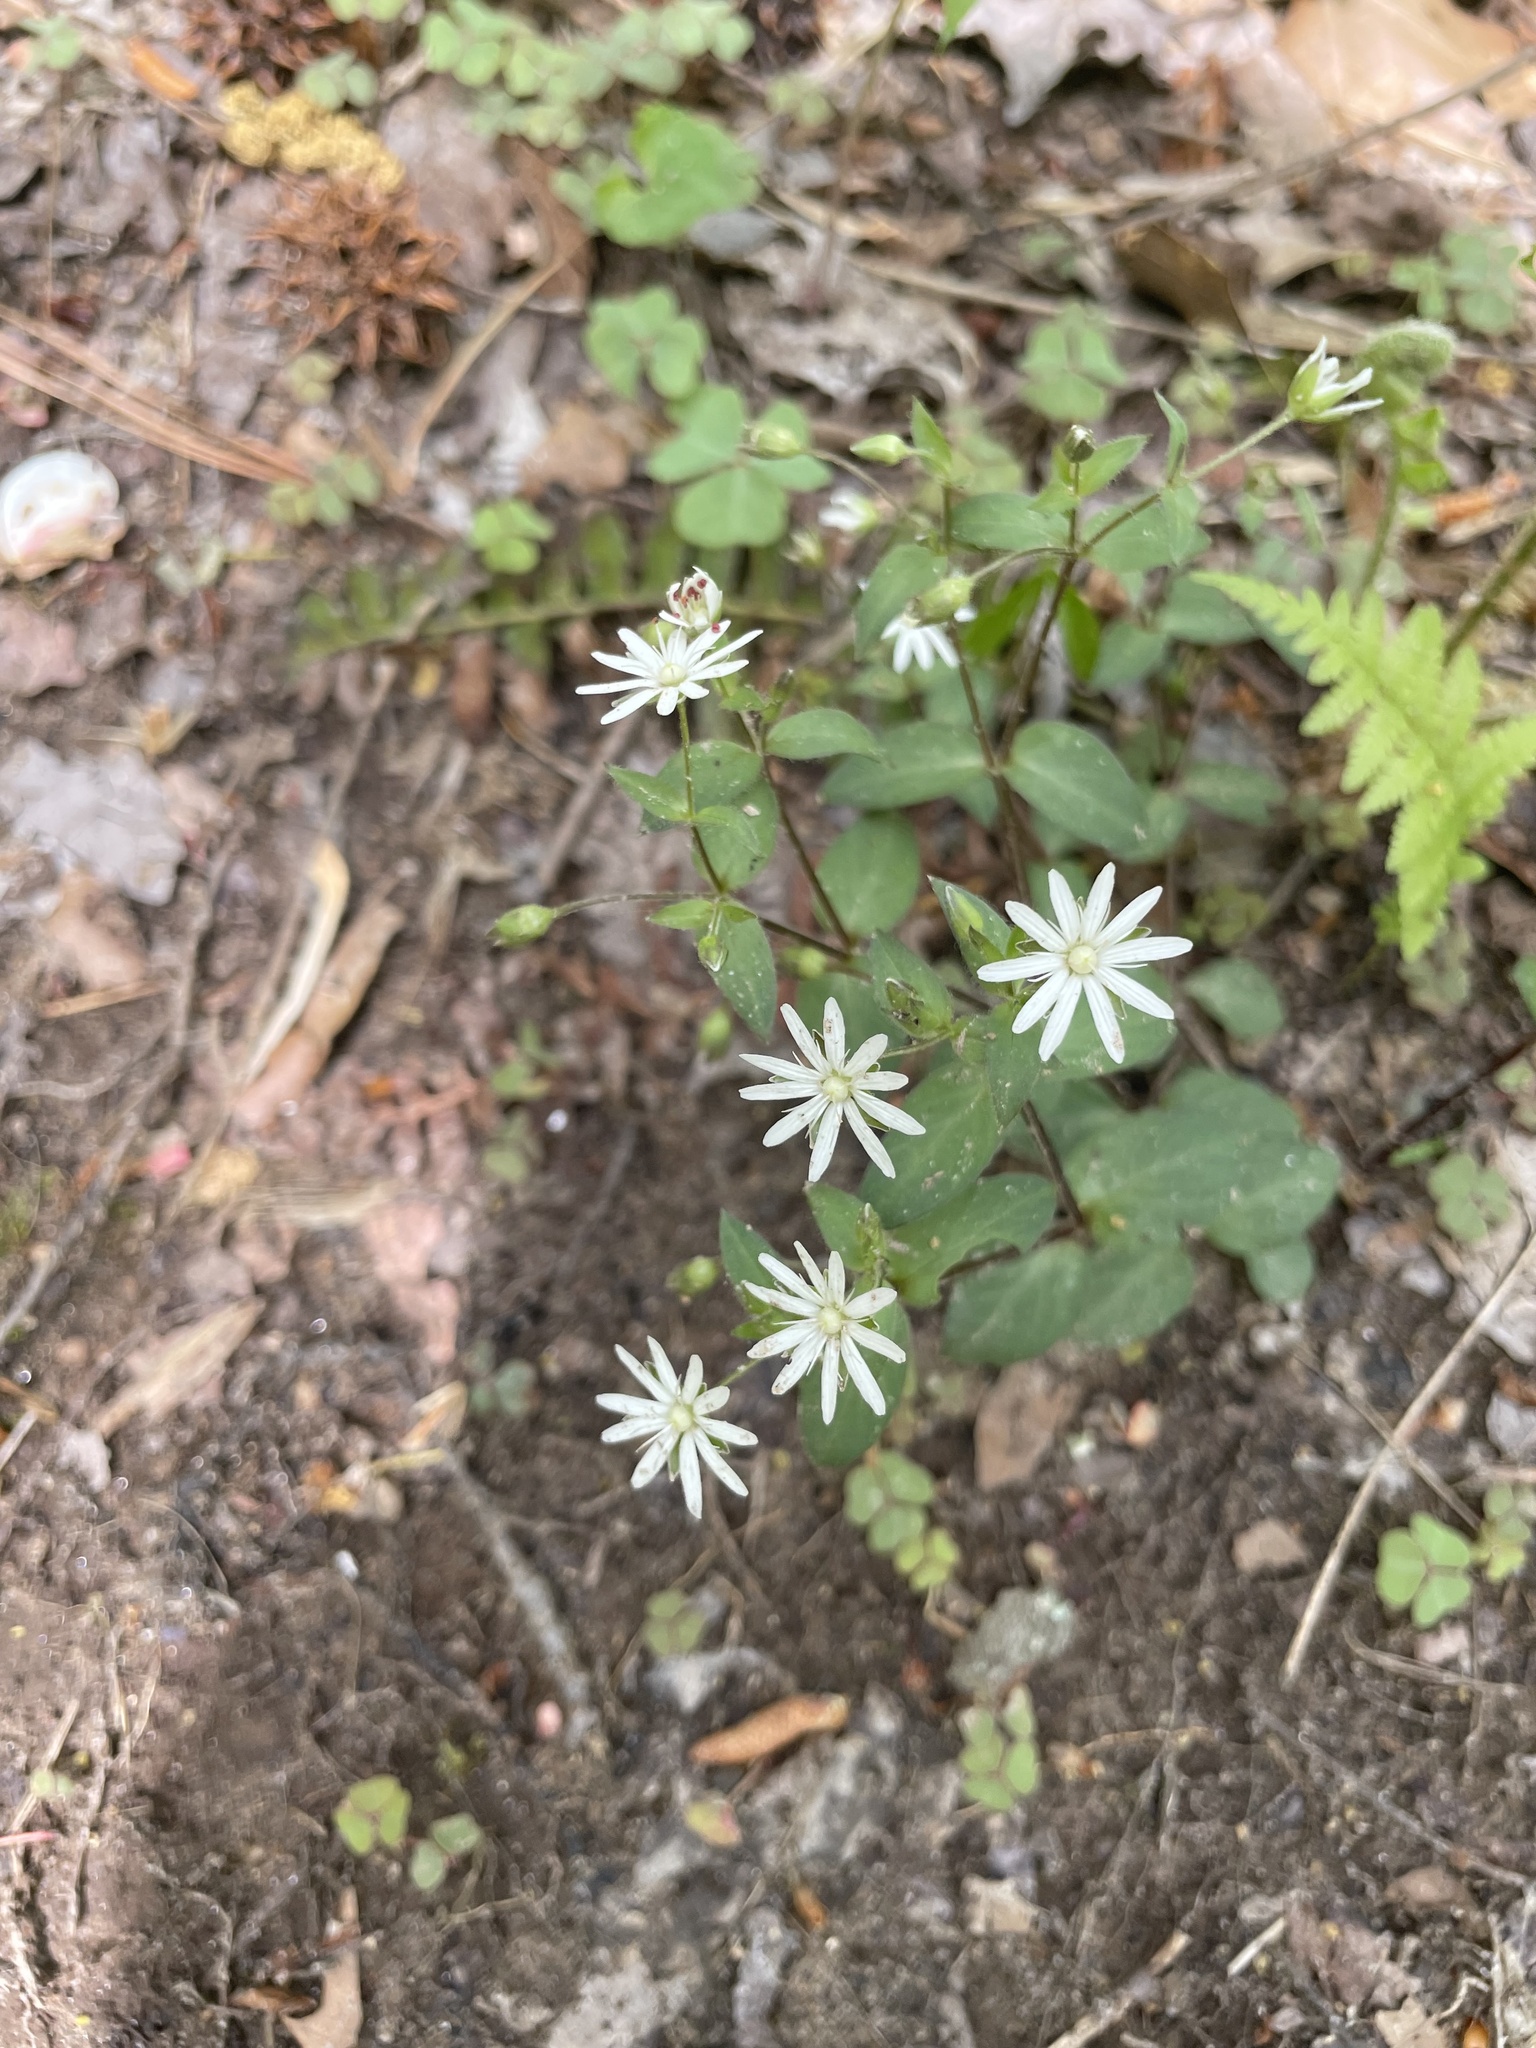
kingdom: Plantae
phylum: Tracheophyta
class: Magnoliopsida
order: Caryophyllales
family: Caryophyllaceae
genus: Stellaria
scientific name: Stellaria pubera
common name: Star chickweed
